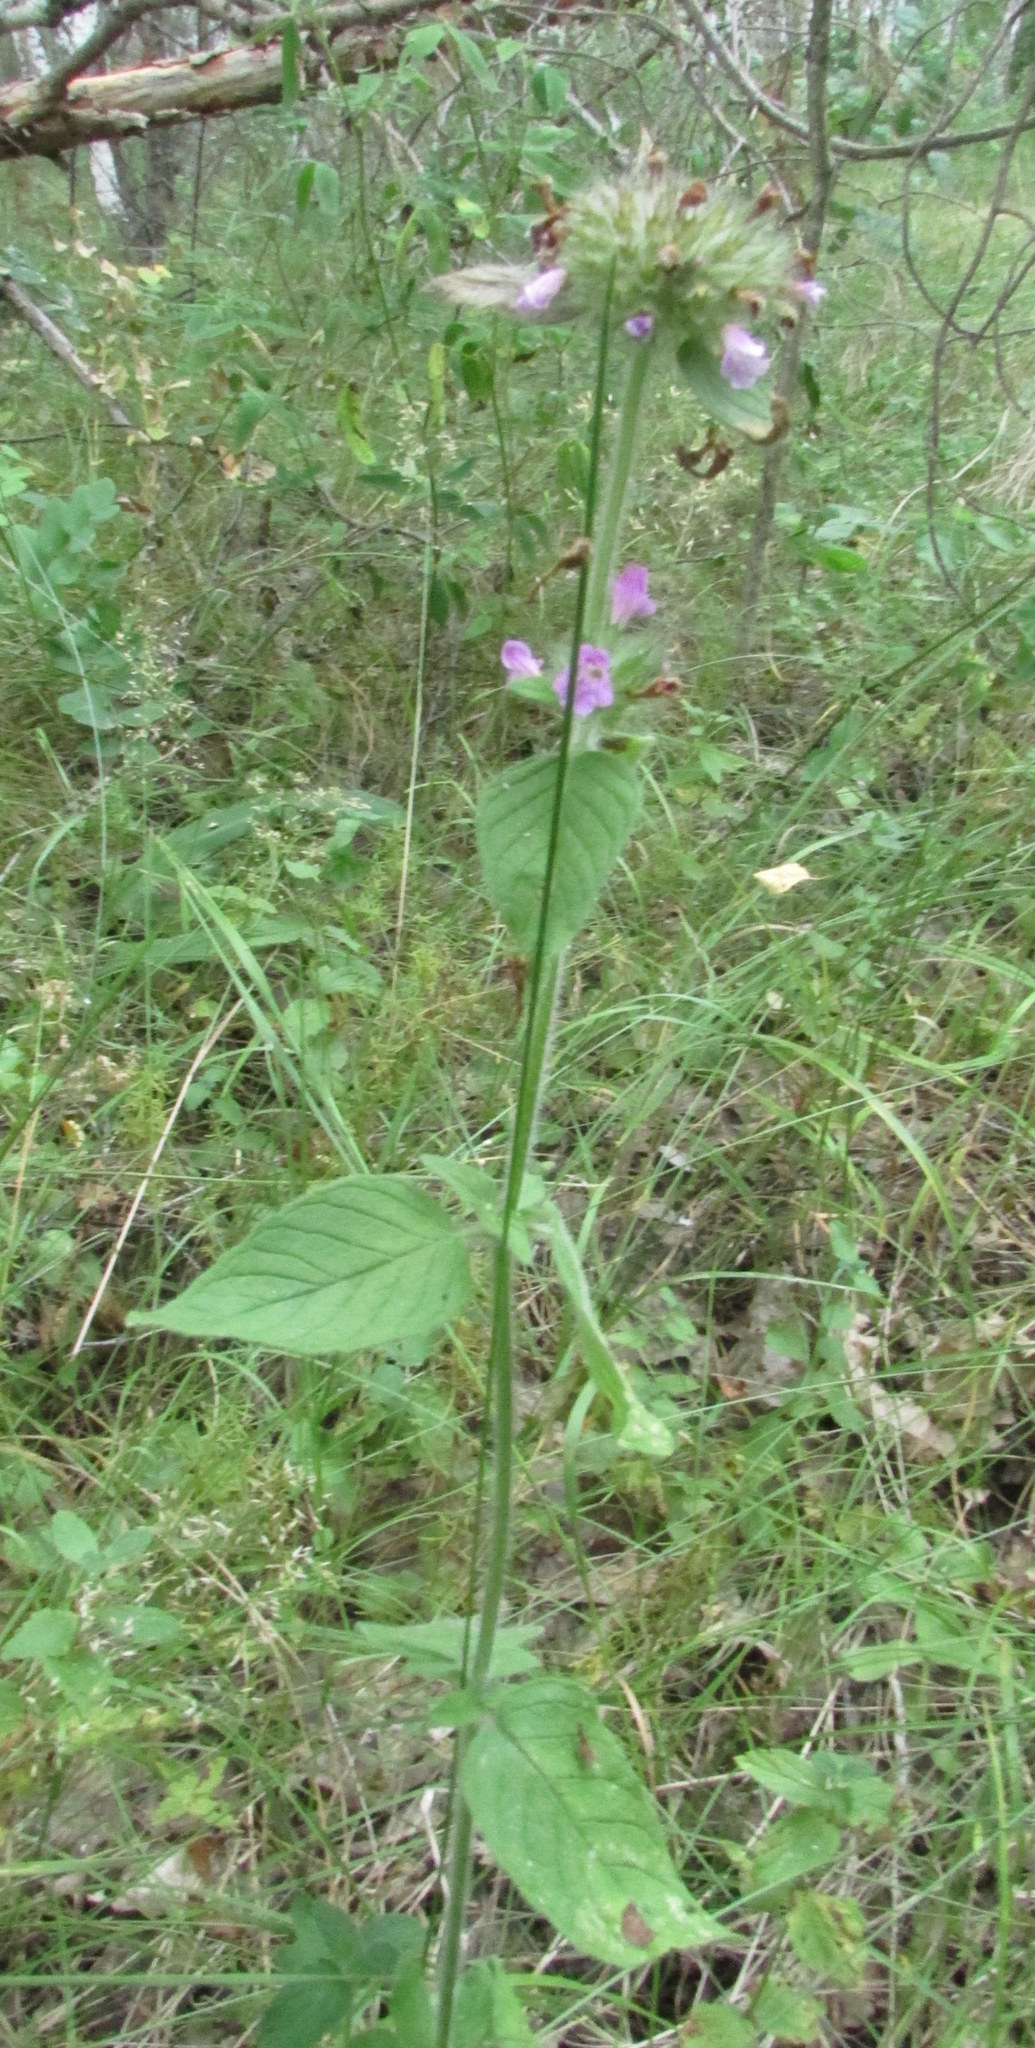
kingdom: Plantae
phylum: Tracheophyta
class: Magnoliopsida
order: Lamiales
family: Lamiaceae
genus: Clinopodium
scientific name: Clinopodium vulgare
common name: Wild basil
